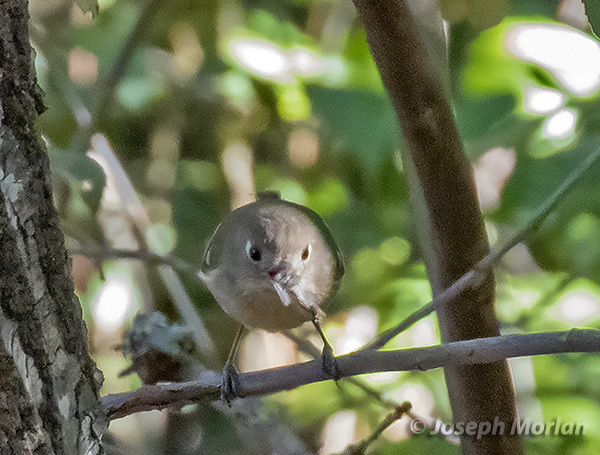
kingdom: Animalia
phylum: Chordata
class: Aves
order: Passeriformes
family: Vireonidae
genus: Vireo
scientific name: Vireo huttoni
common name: Hutton's vireo
